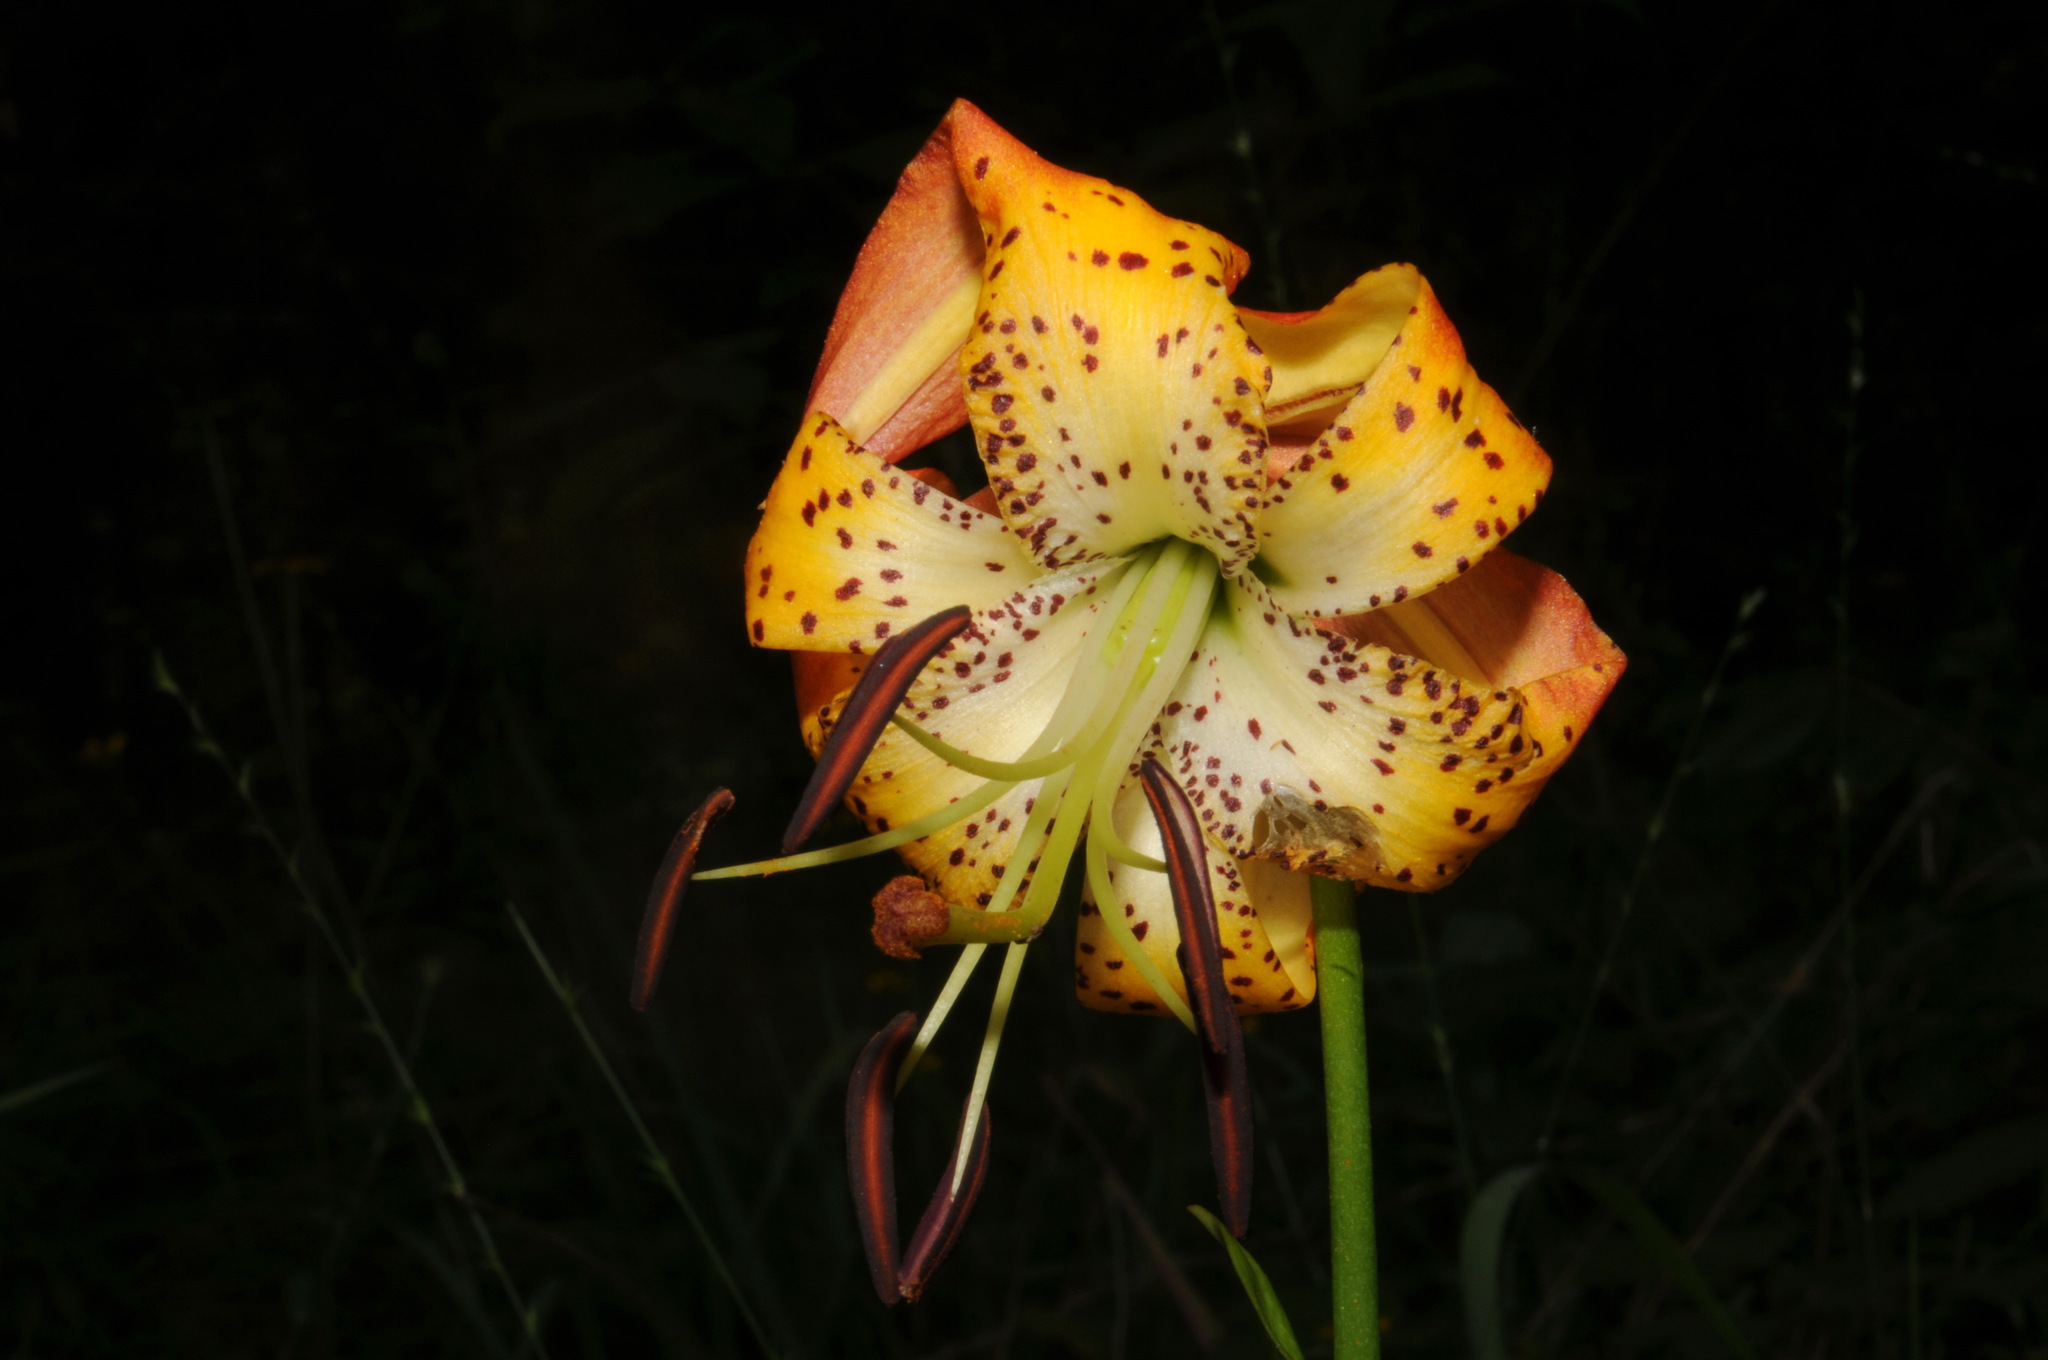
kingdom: Plantae
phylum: Tracheophyta
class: Liliopsida
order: Liliales
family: Liliaceae
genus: Lilium
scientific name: Lilium michauxii
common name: Carolina lily
